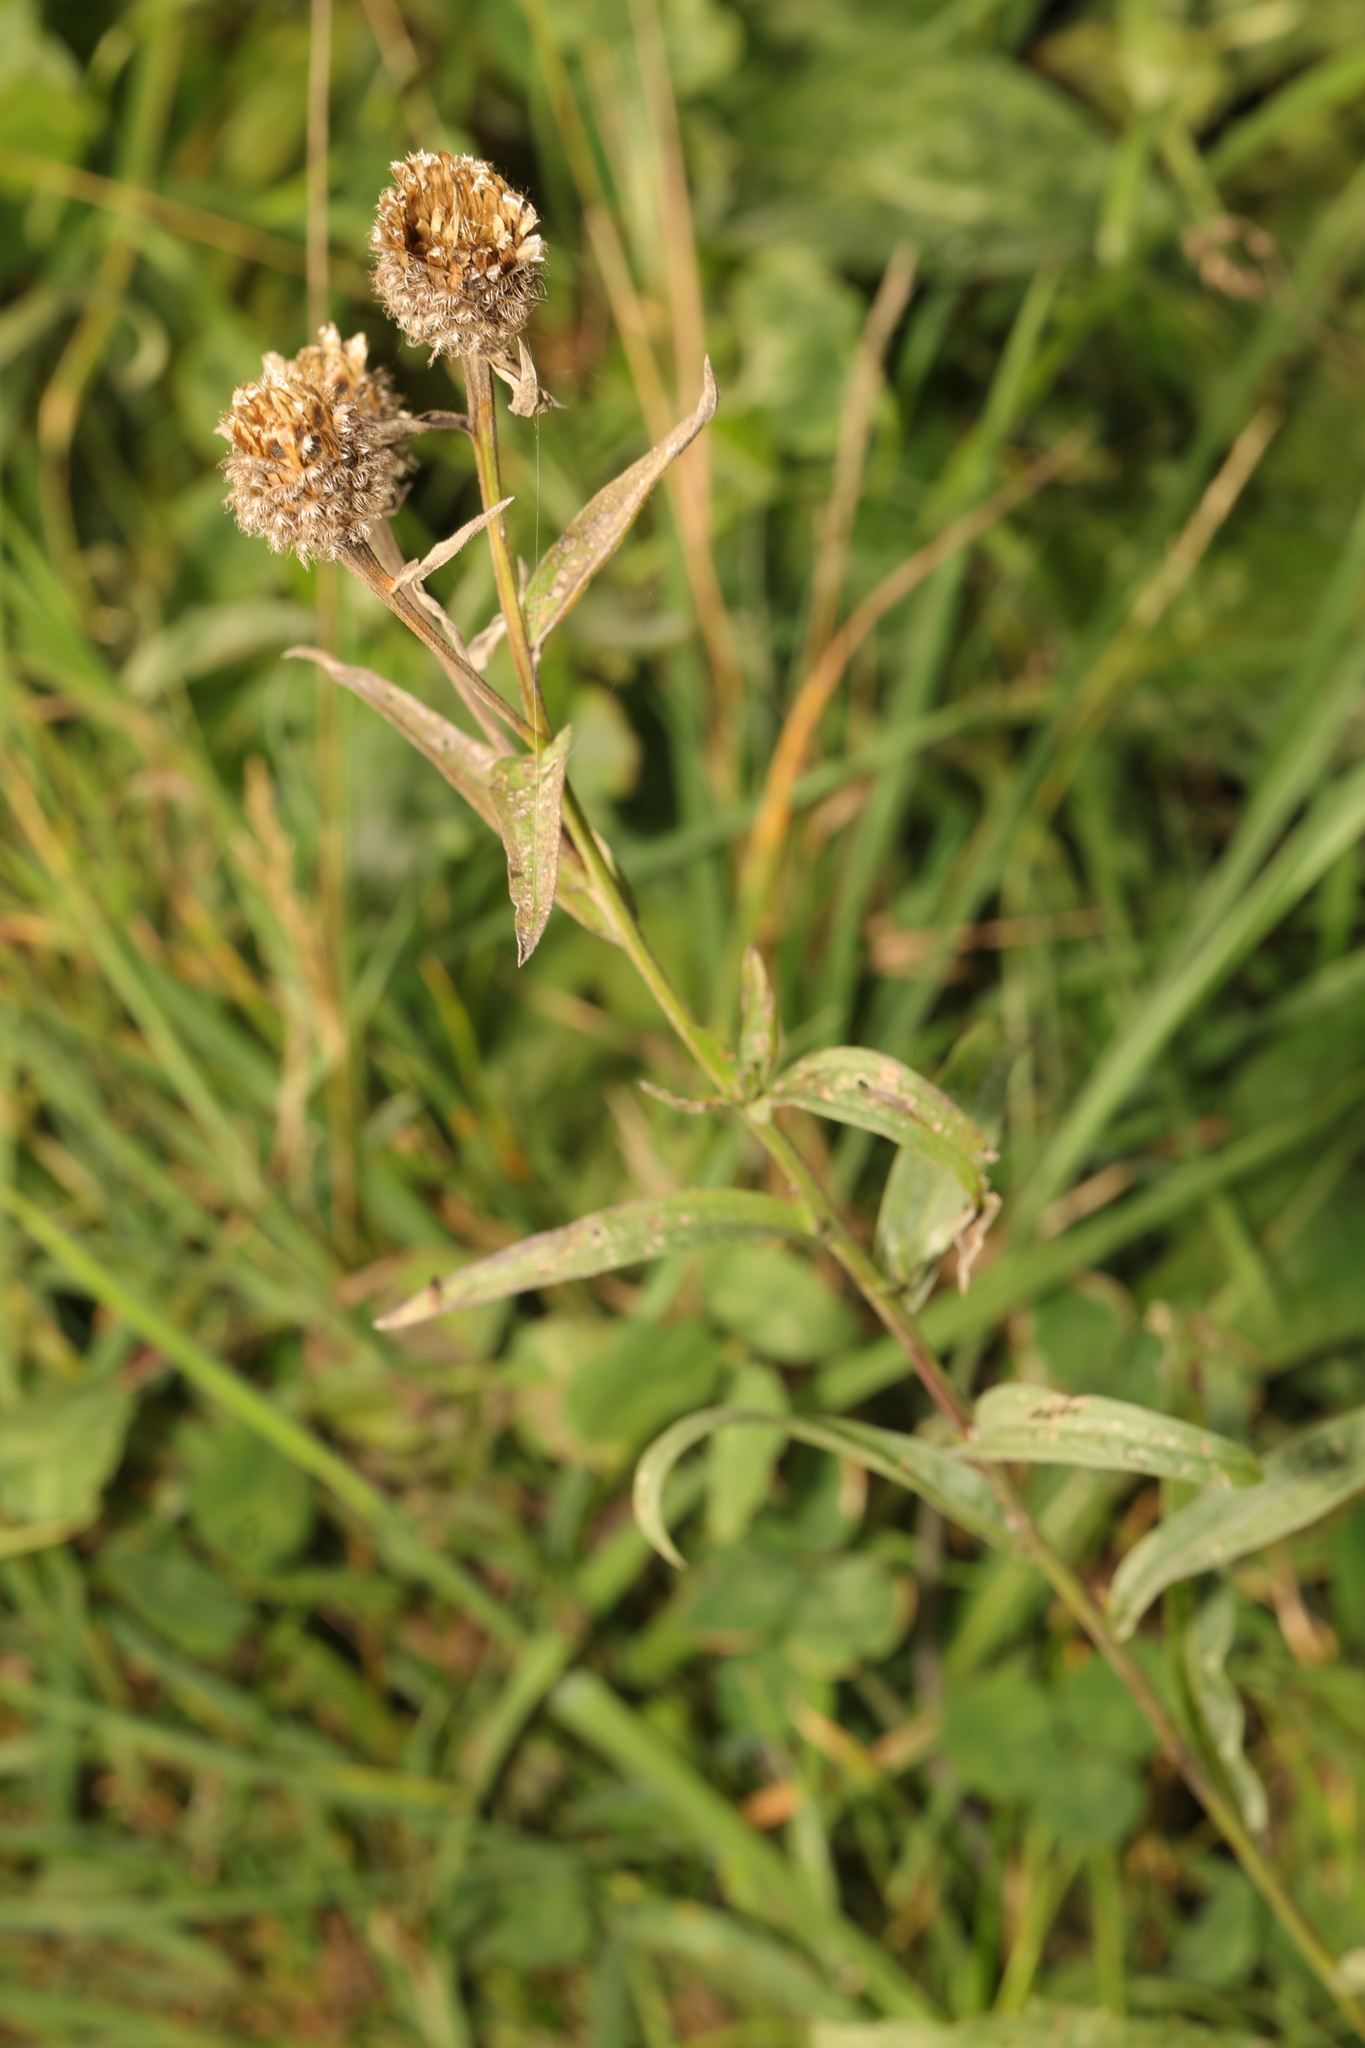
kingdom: Plantae
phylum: Tracheophyta
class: Magnoliopsida
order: Asterales
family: Asteraceae
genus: Centaurea
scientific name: Centaurea nigra
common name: Lesser knapweed
